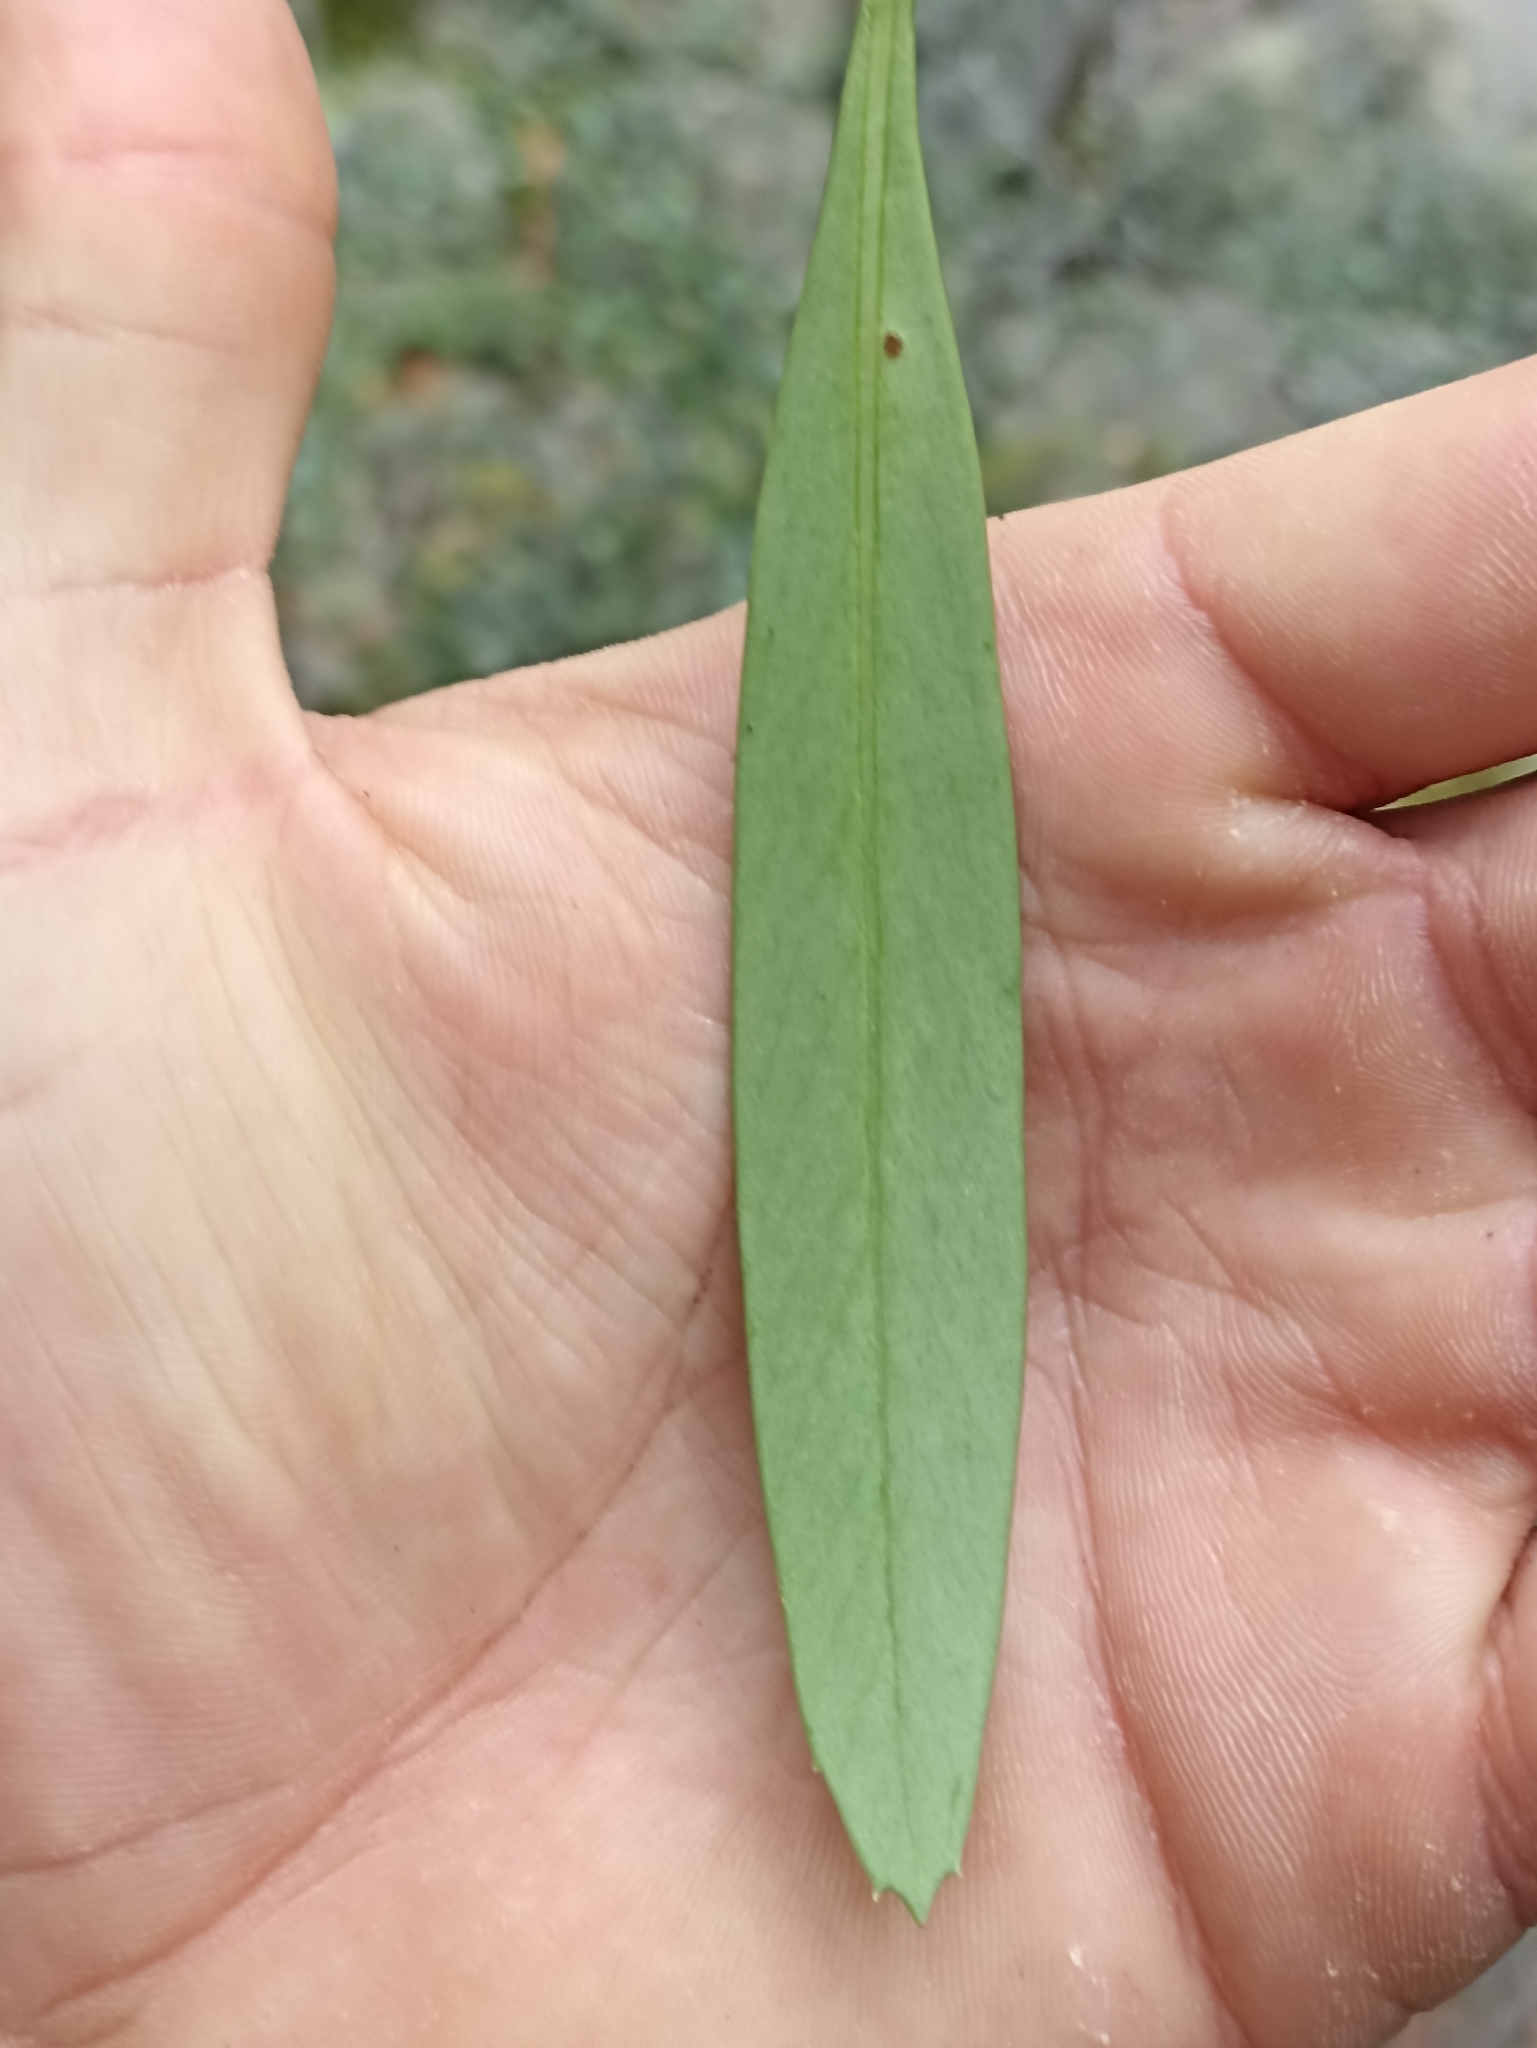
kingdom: Plantae
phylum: Tracheophyta
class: Magnoliopsida
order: Apiales
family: Araliaceae
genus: Pseudopanax
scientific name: Pseudopanax crassifolius
